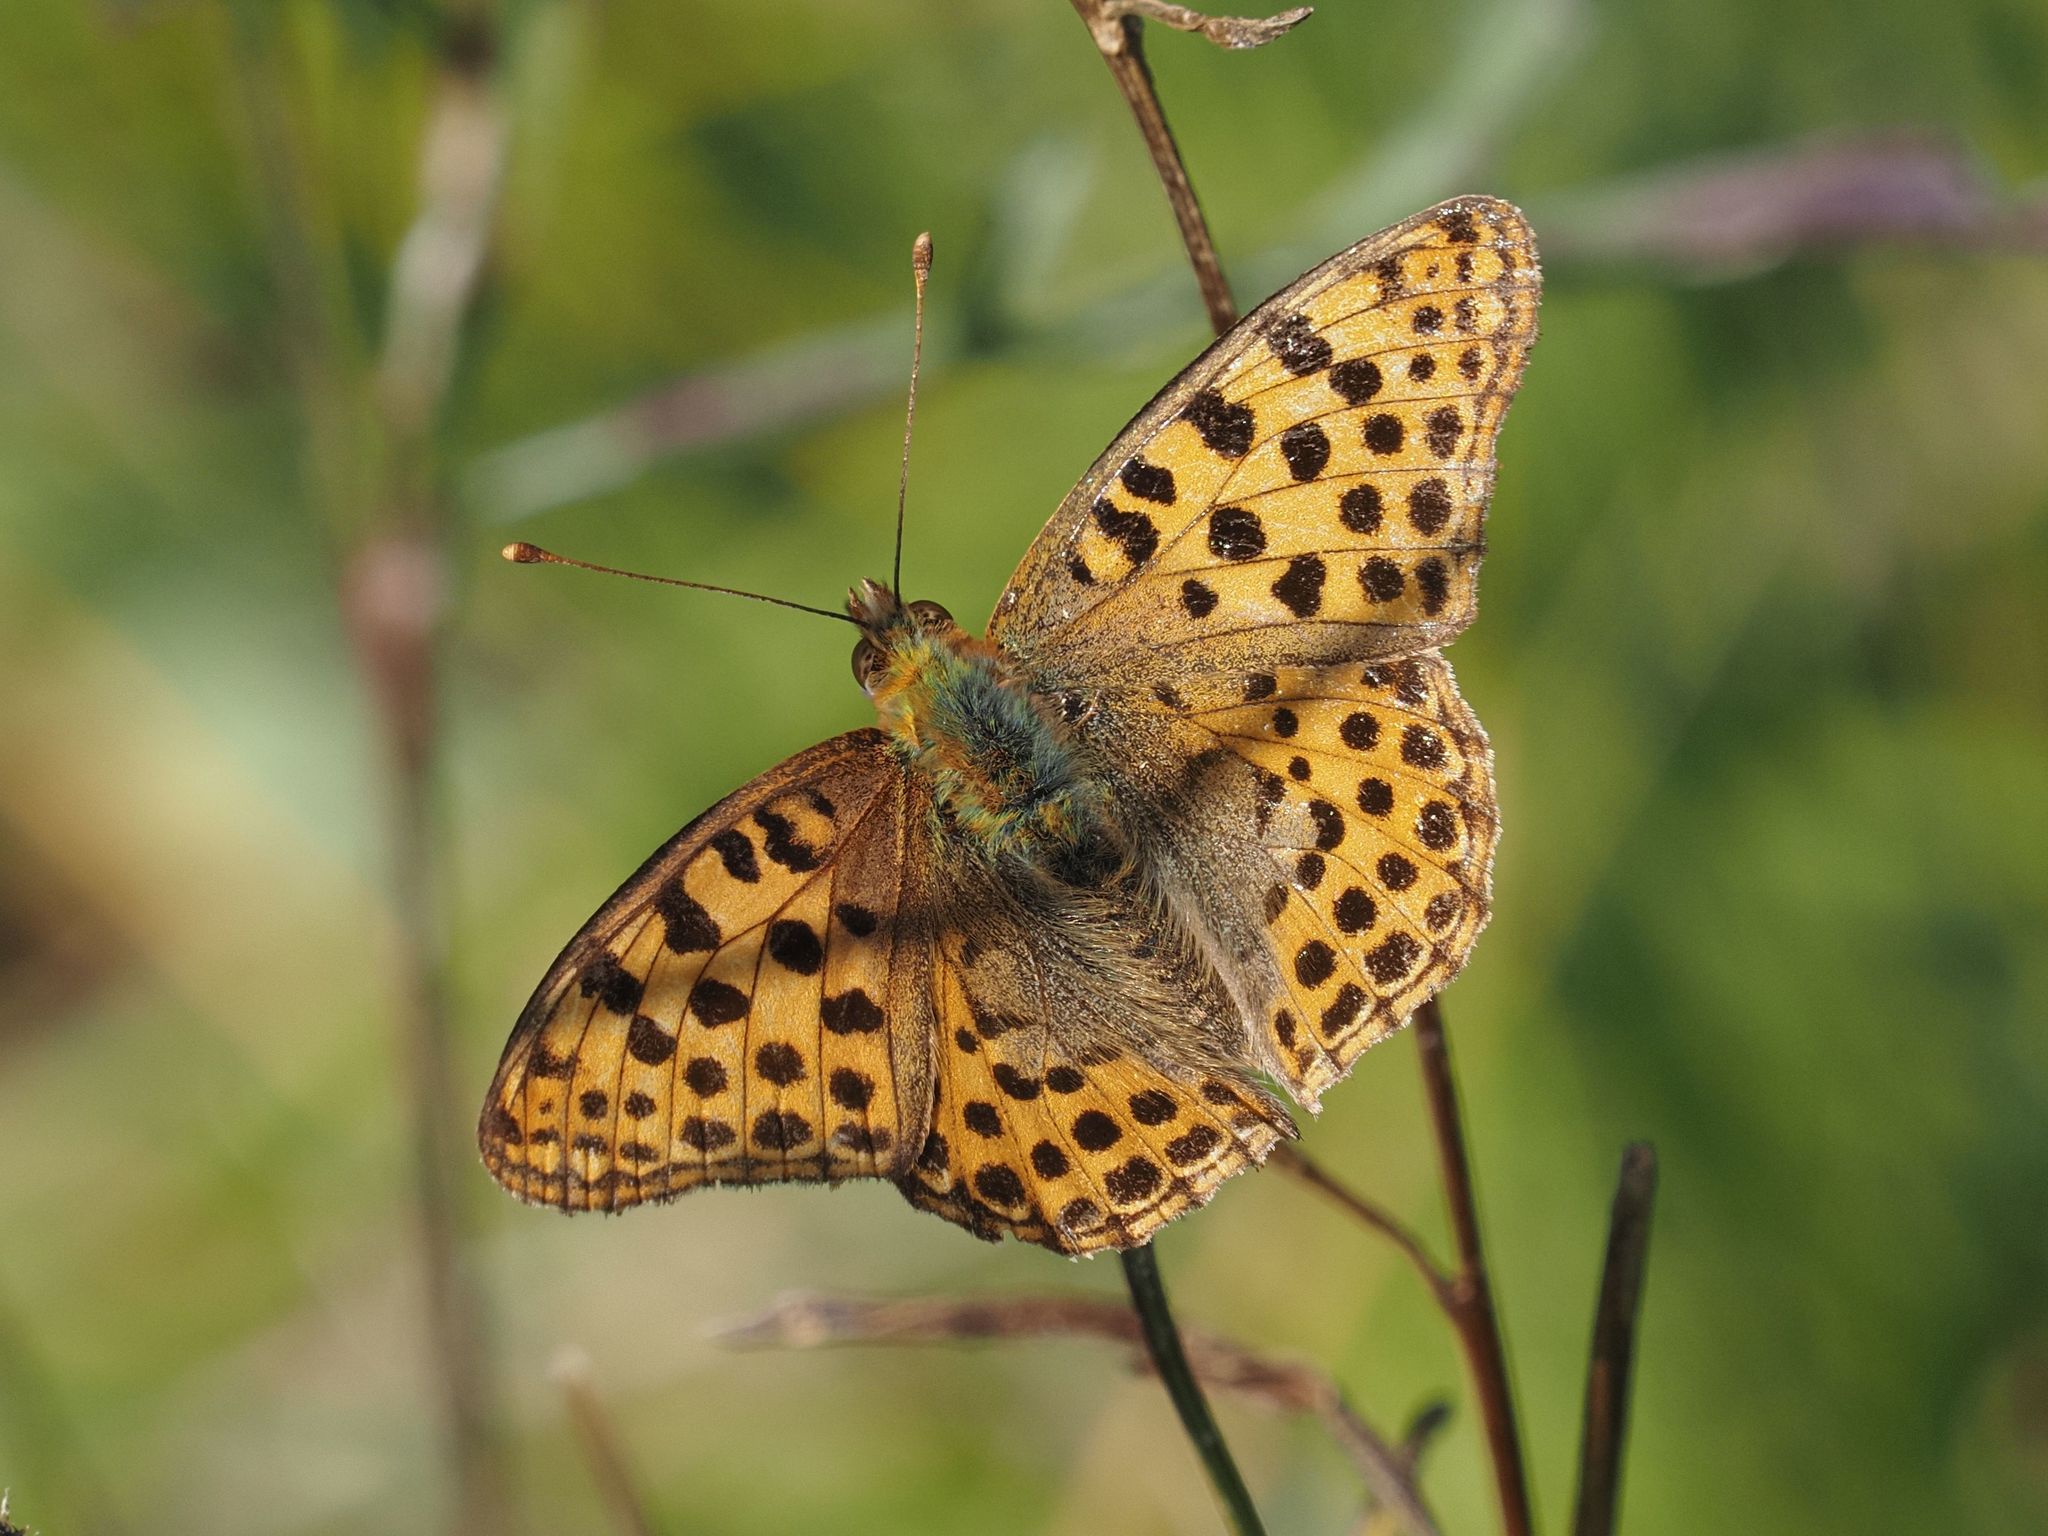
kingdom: Animalia
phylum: Arthropoda
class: Insecta
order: Lepidoptera
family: Nymphalidae
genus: Issoria
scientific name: Issoria lathonia
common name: Queen of spain fritillary
